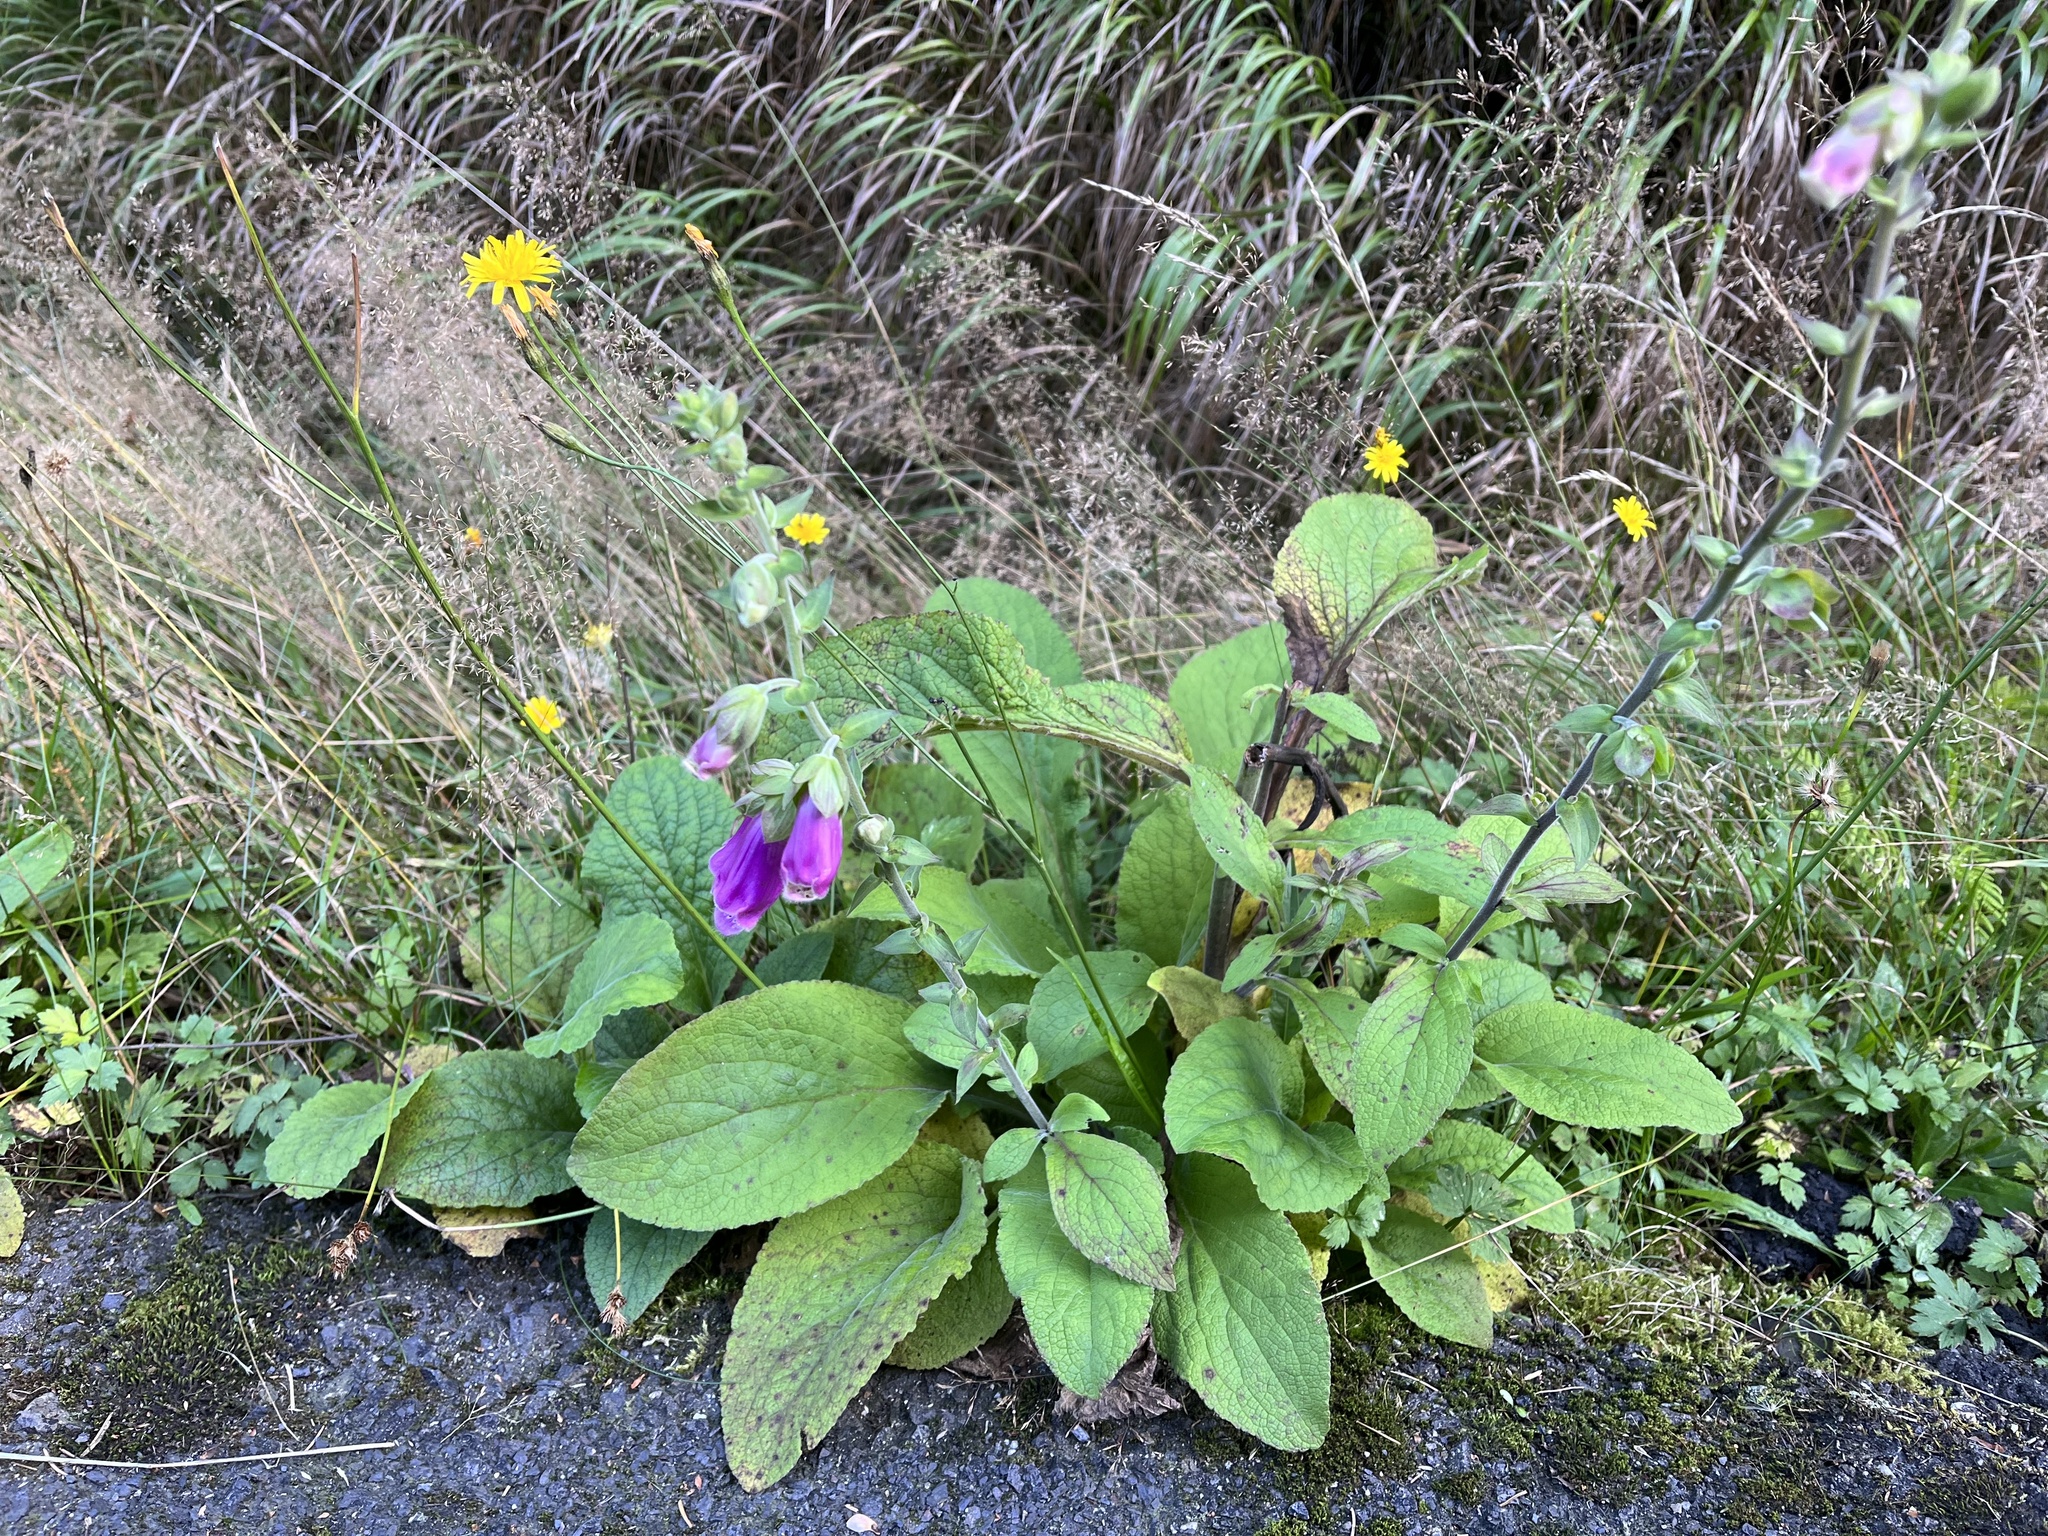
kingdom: Plantae
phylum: Tracheophyta
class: Magnoliopsida
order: Lamiales
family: Plantaginaceae
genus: Digitalis
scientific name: Digitalis purpurea
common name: Foxglove
